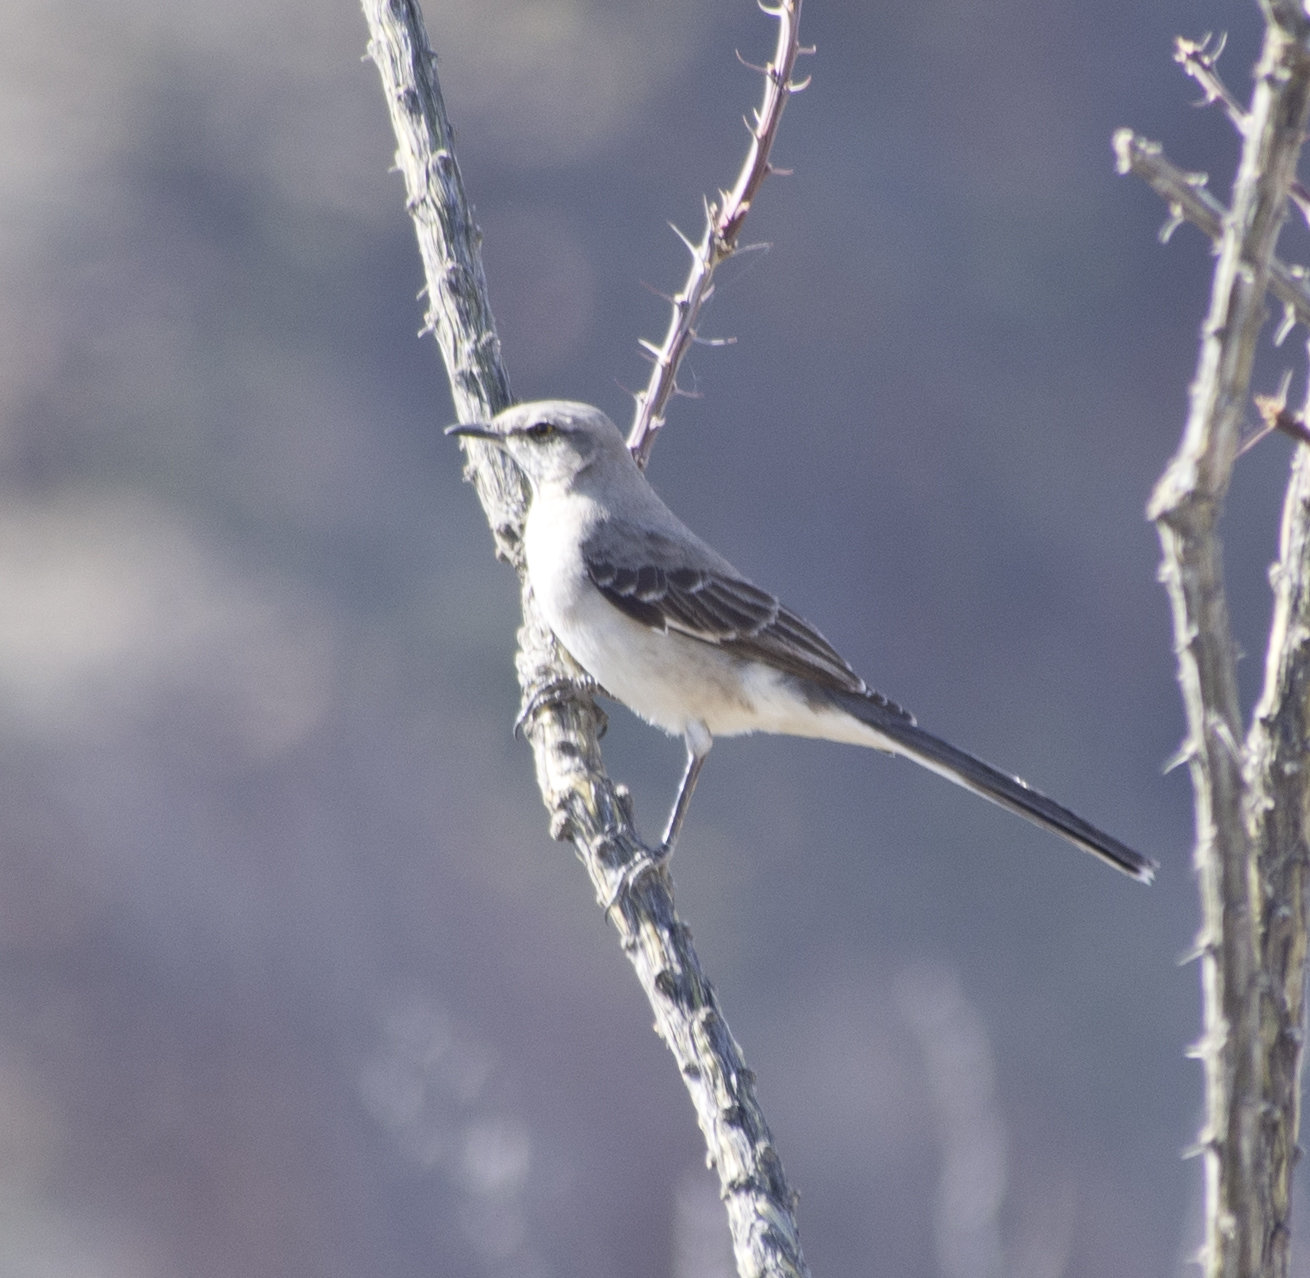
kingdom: Animalia
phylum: Chordata
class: Aves
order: Passeriformes
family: Mimidae
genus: Mimus
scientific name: Mimus polyglottos
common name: Northern mockingbird
